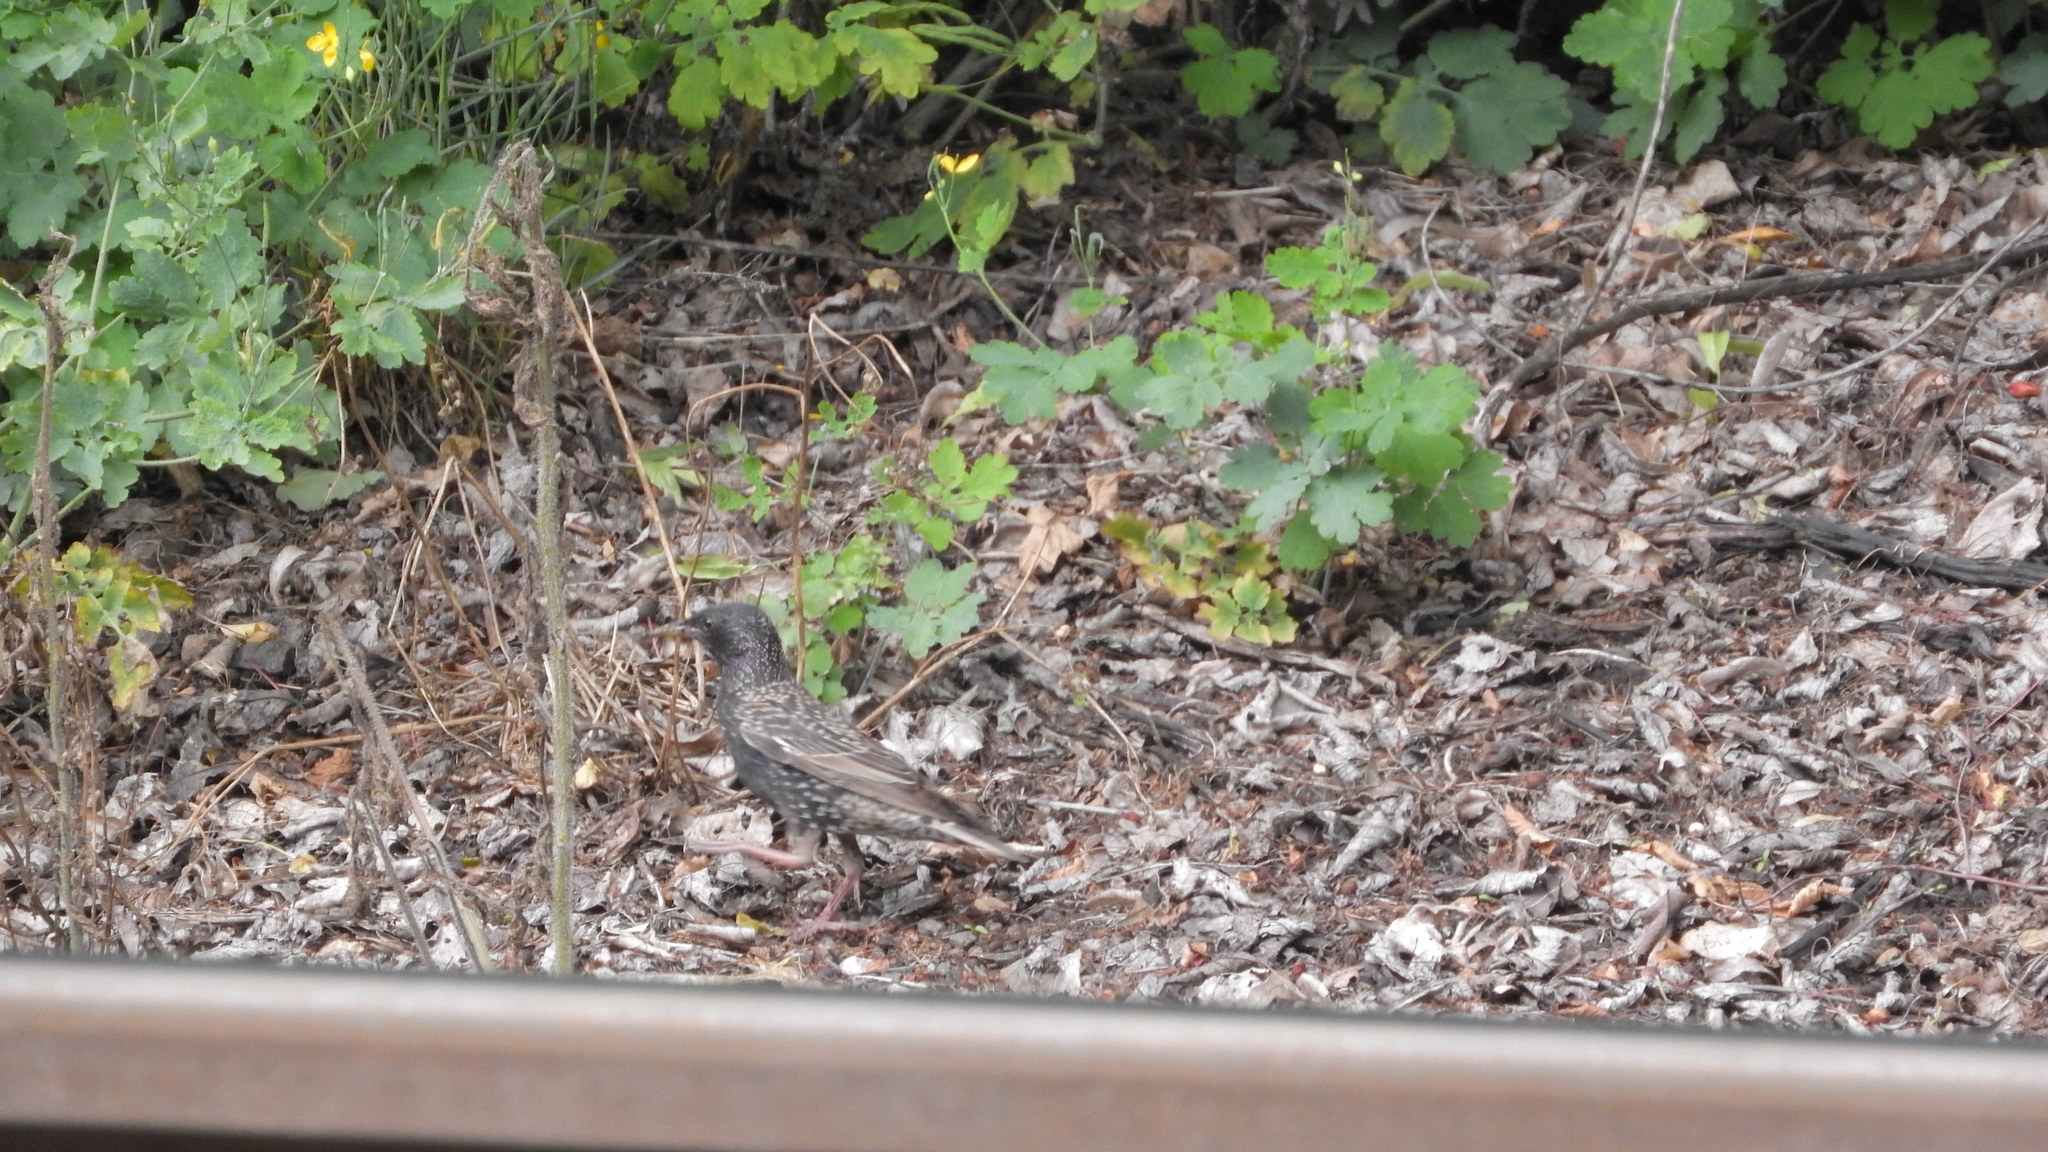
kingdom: Animalia
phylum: Chordata
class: Aves
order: Passeriformes
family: Sturnidae
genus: Sturnus
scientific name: Sturnus vulgaris
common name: Common starling
